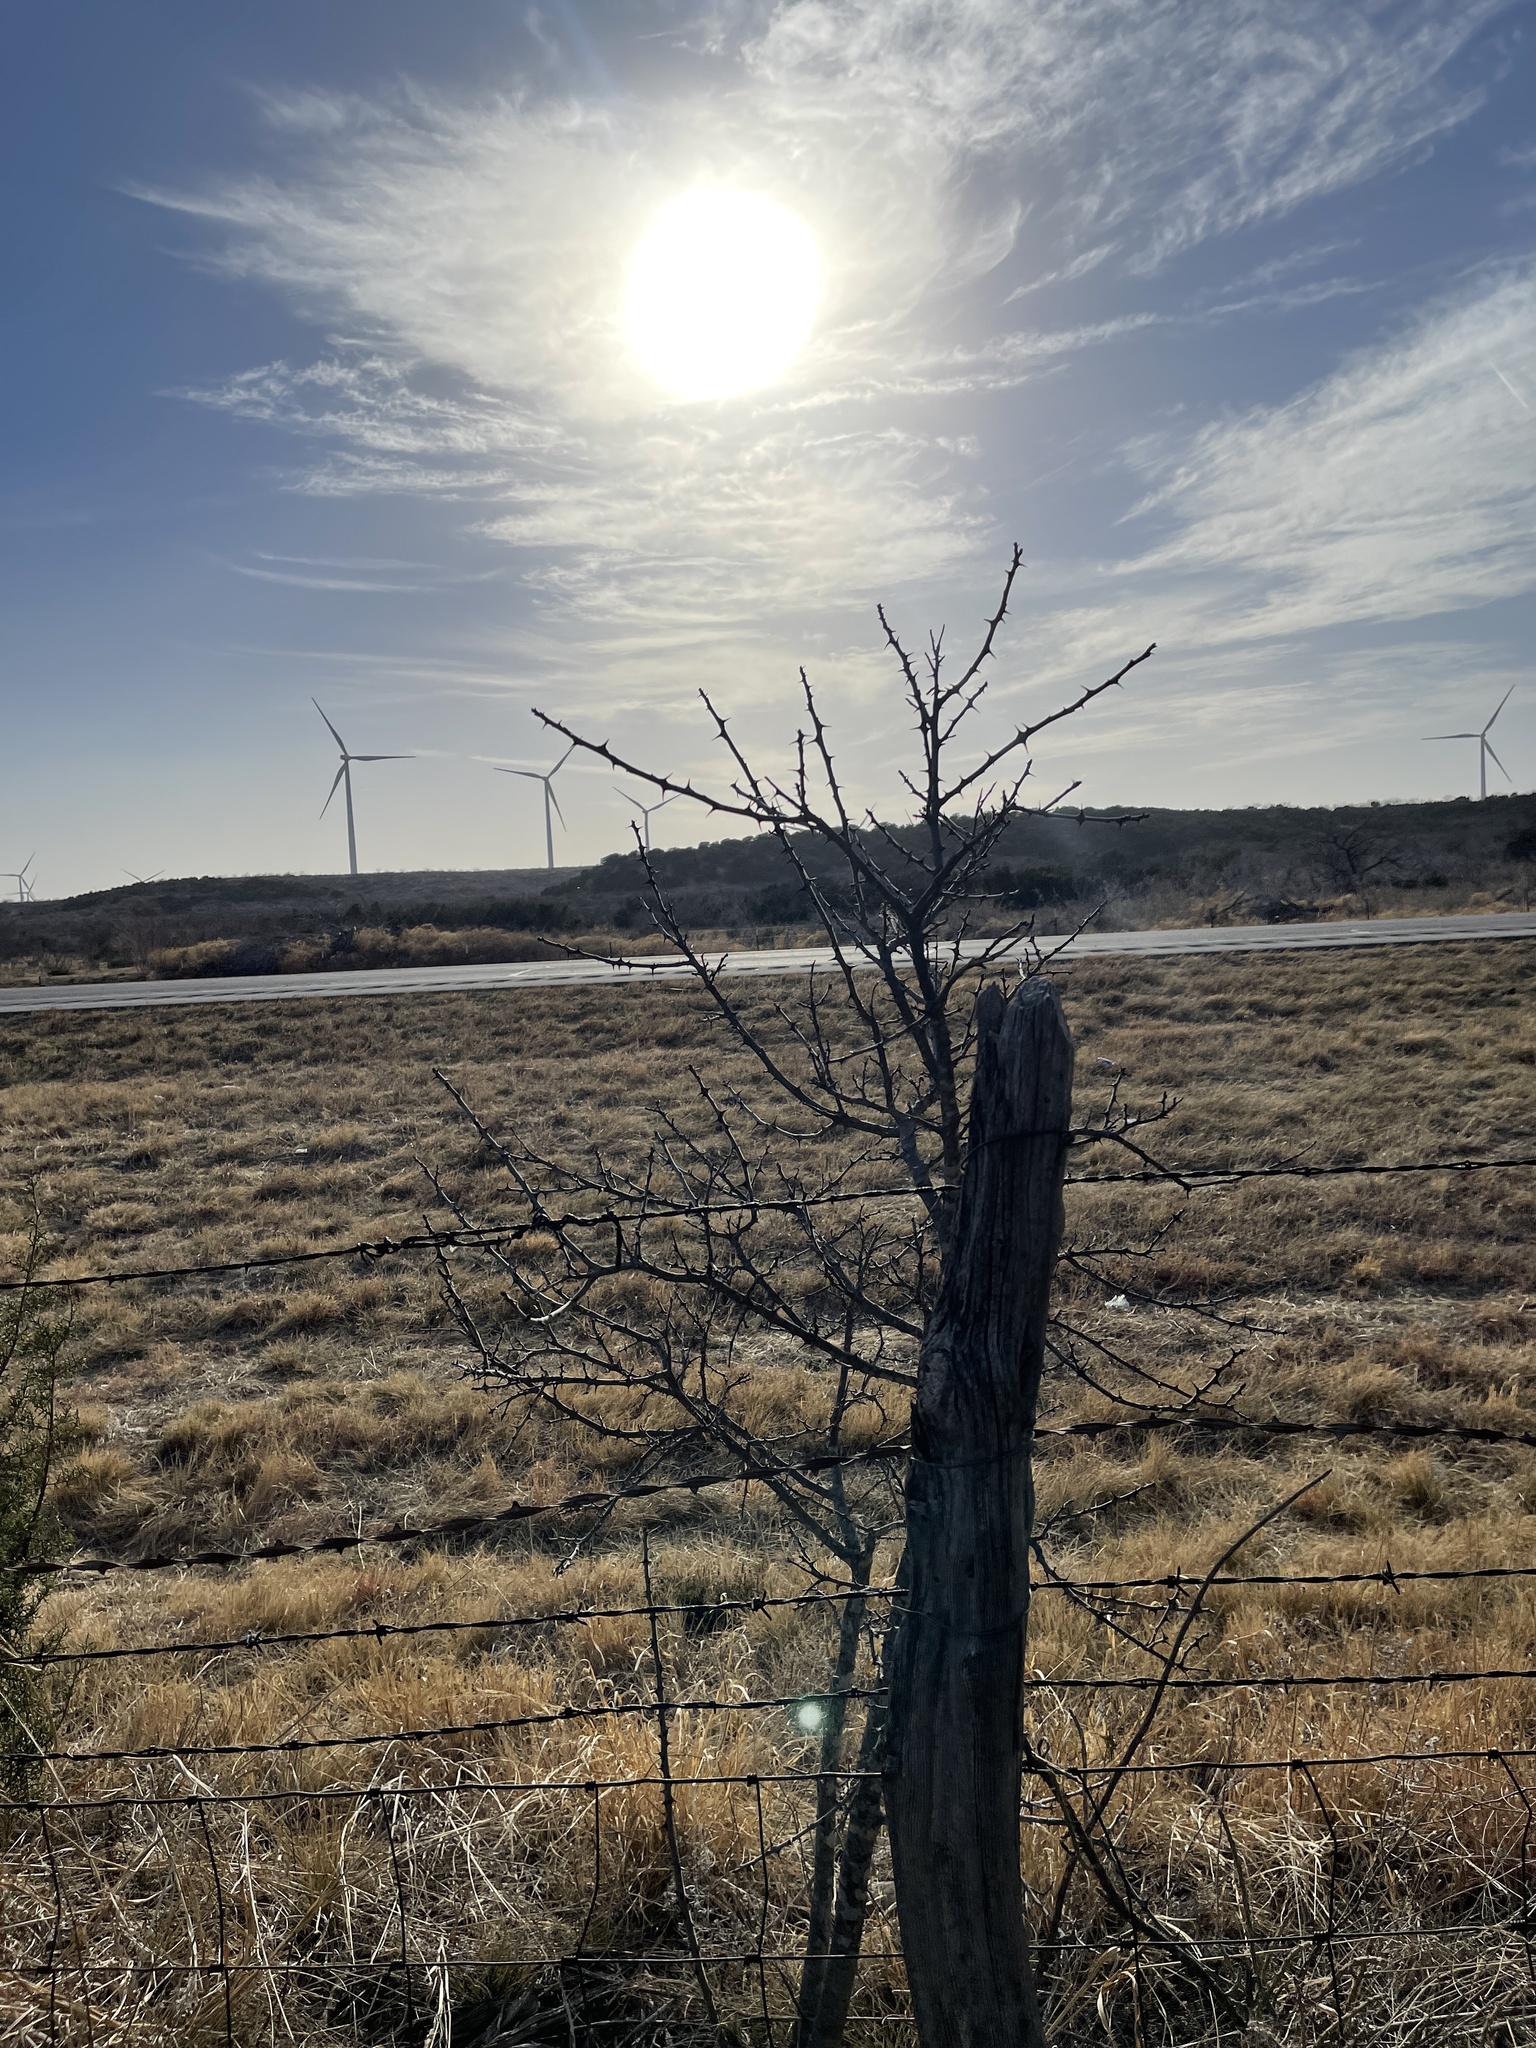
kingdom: Plantae
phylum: Tracheophyta
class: Magnoliopsida
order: Sapindales
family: Rutaceae
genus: Zanthoxylum
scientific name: Zanthoxylum clava-herculis
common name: Hercules'-club
